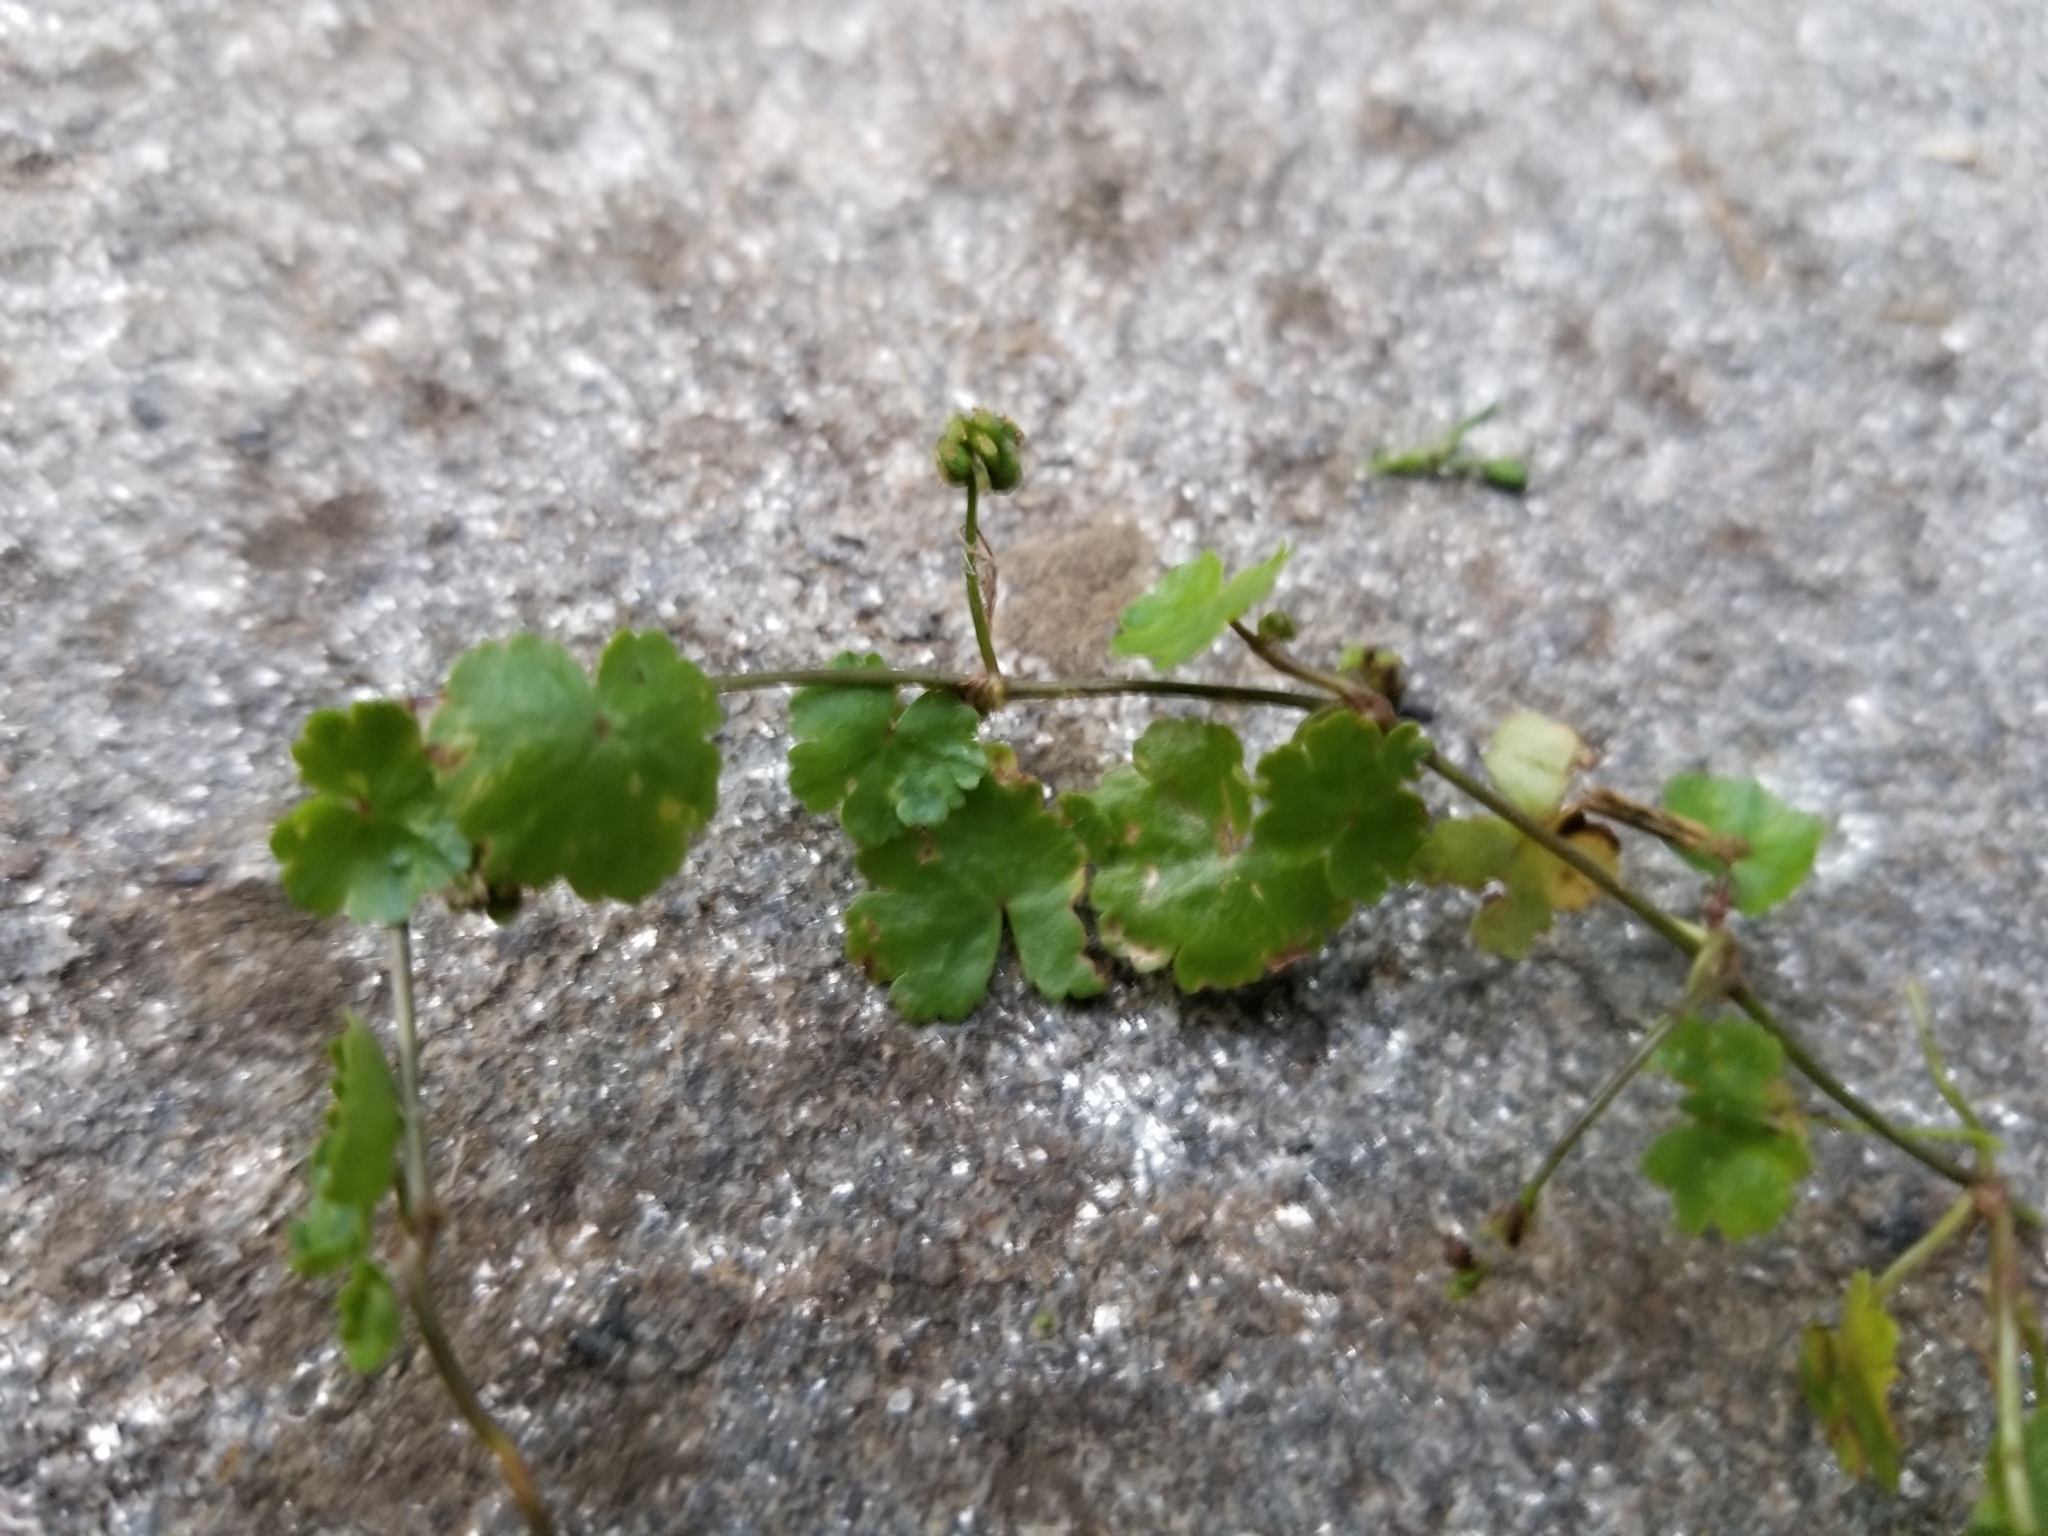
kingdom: Plantae
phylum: Tracheophyta
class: Magnoliopsida
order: Apiales
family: Araliaceae
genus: Hydrocotyle
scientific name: Hydrocotyle sibthorpioides
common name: Lawn marshpennywort
